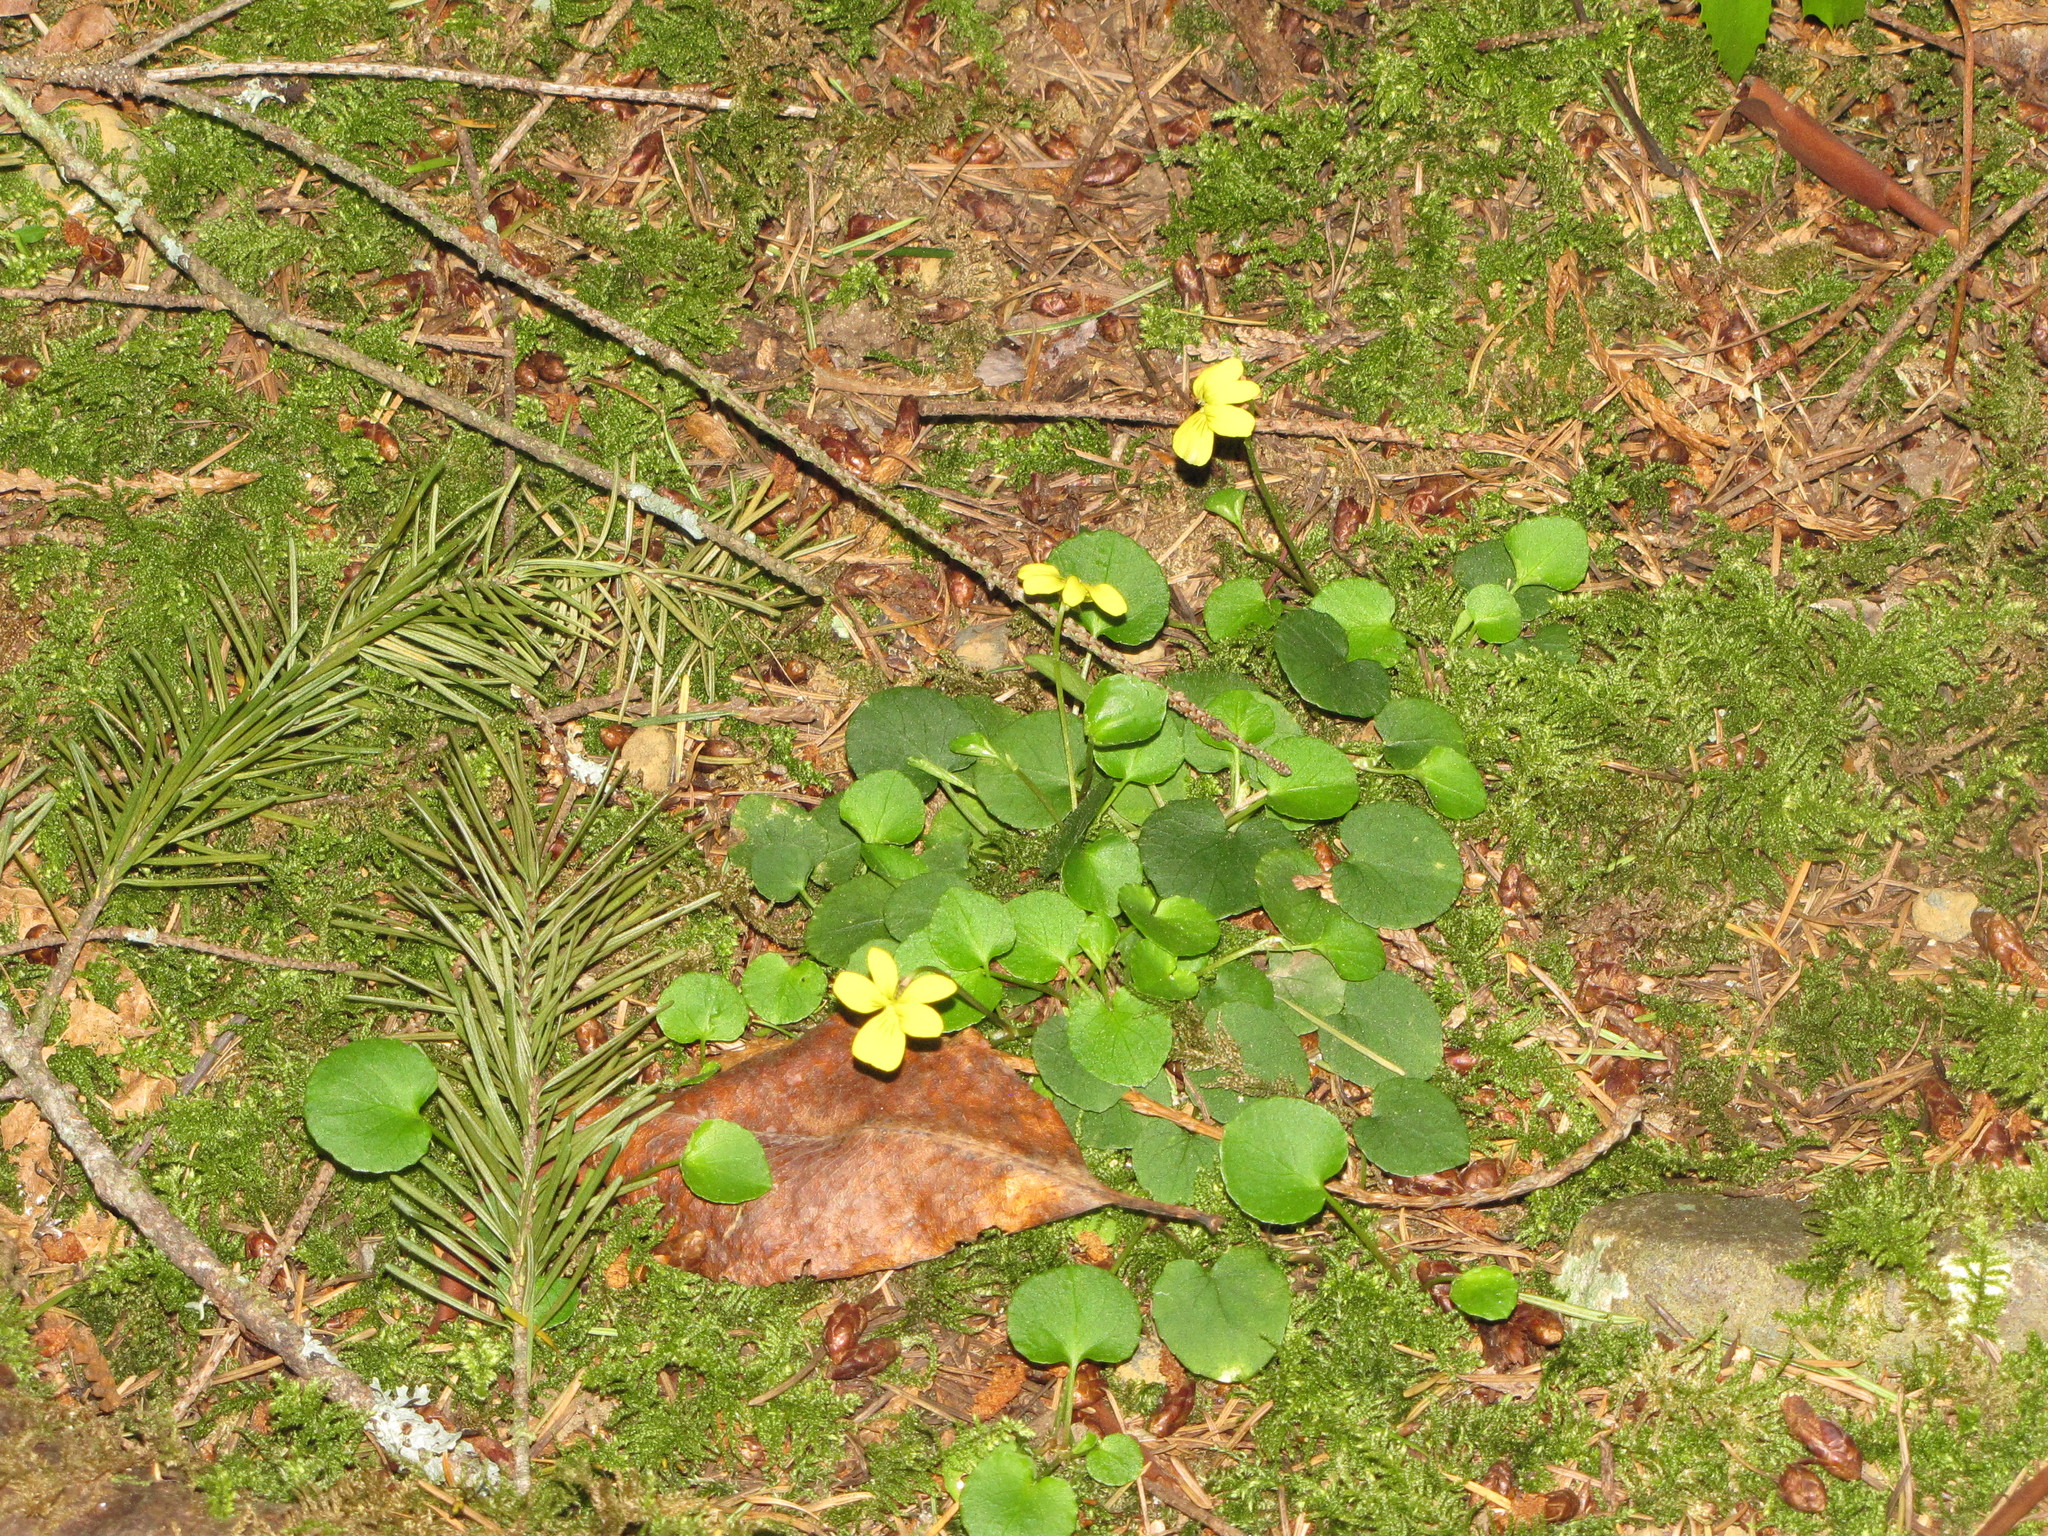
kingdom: Plantae
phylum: Tracheophyta
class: Magnoliopsida
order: Malpighiales
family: Violaceae
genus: Viola
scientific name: Viola sempervirens
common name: Evergreen violet
